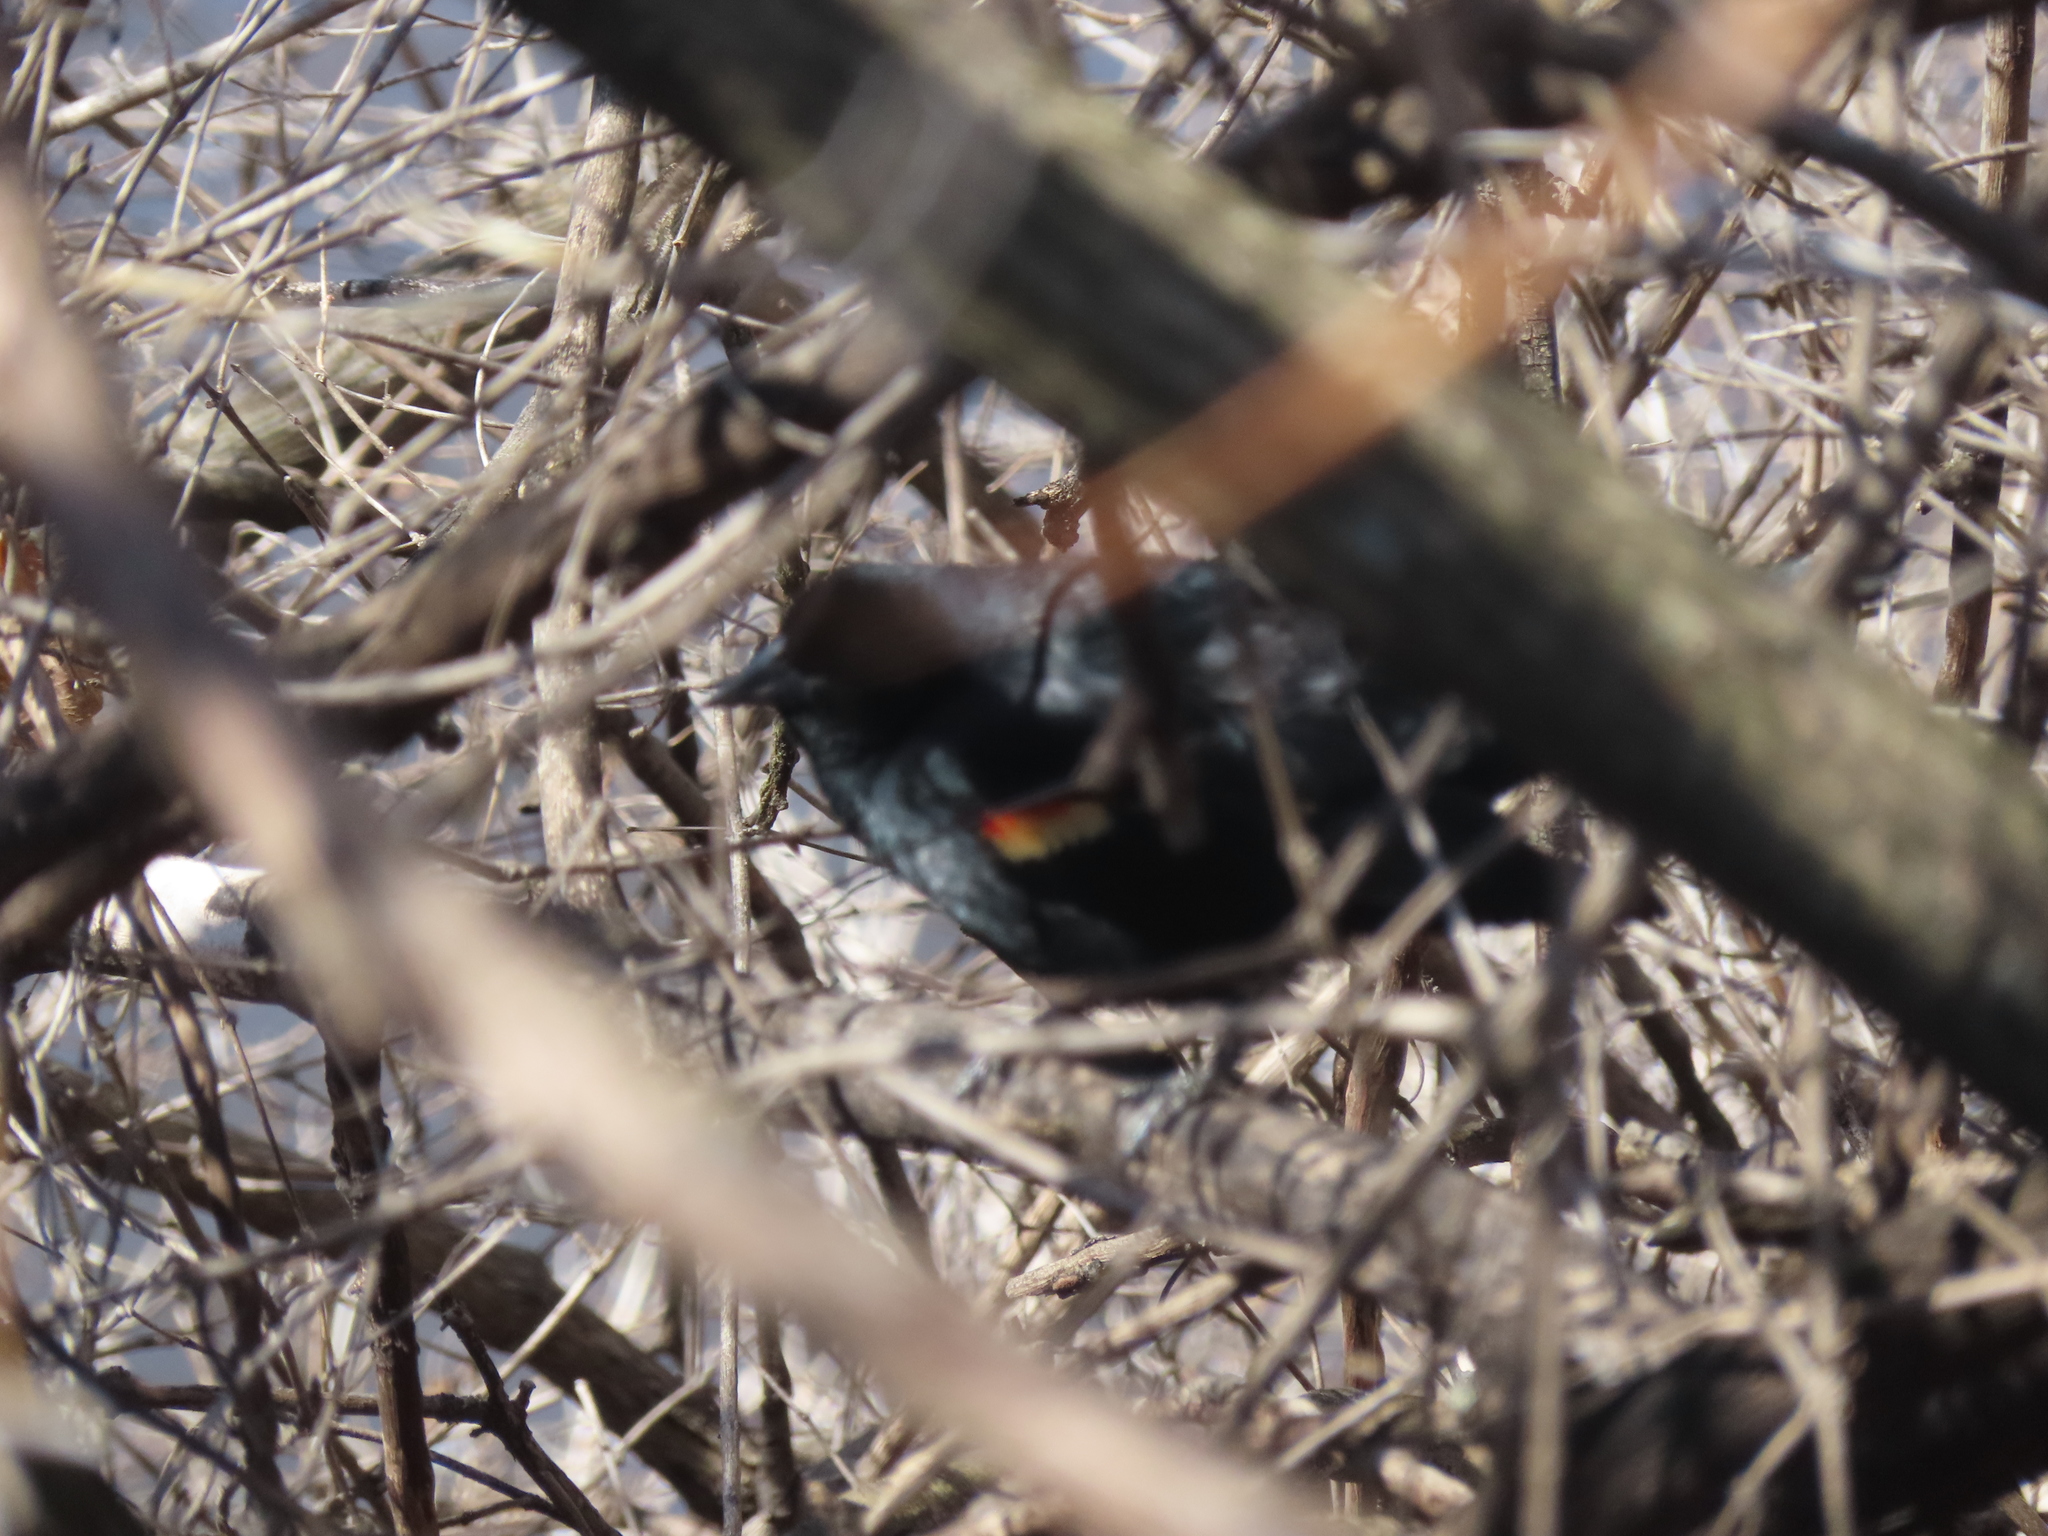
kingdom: Animalia
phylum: Chordata
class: Aves
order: Passeriformes
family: Icteridae
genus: Agelaius
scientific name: Agelaius phoeniceus
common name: Red-winged blackbird
